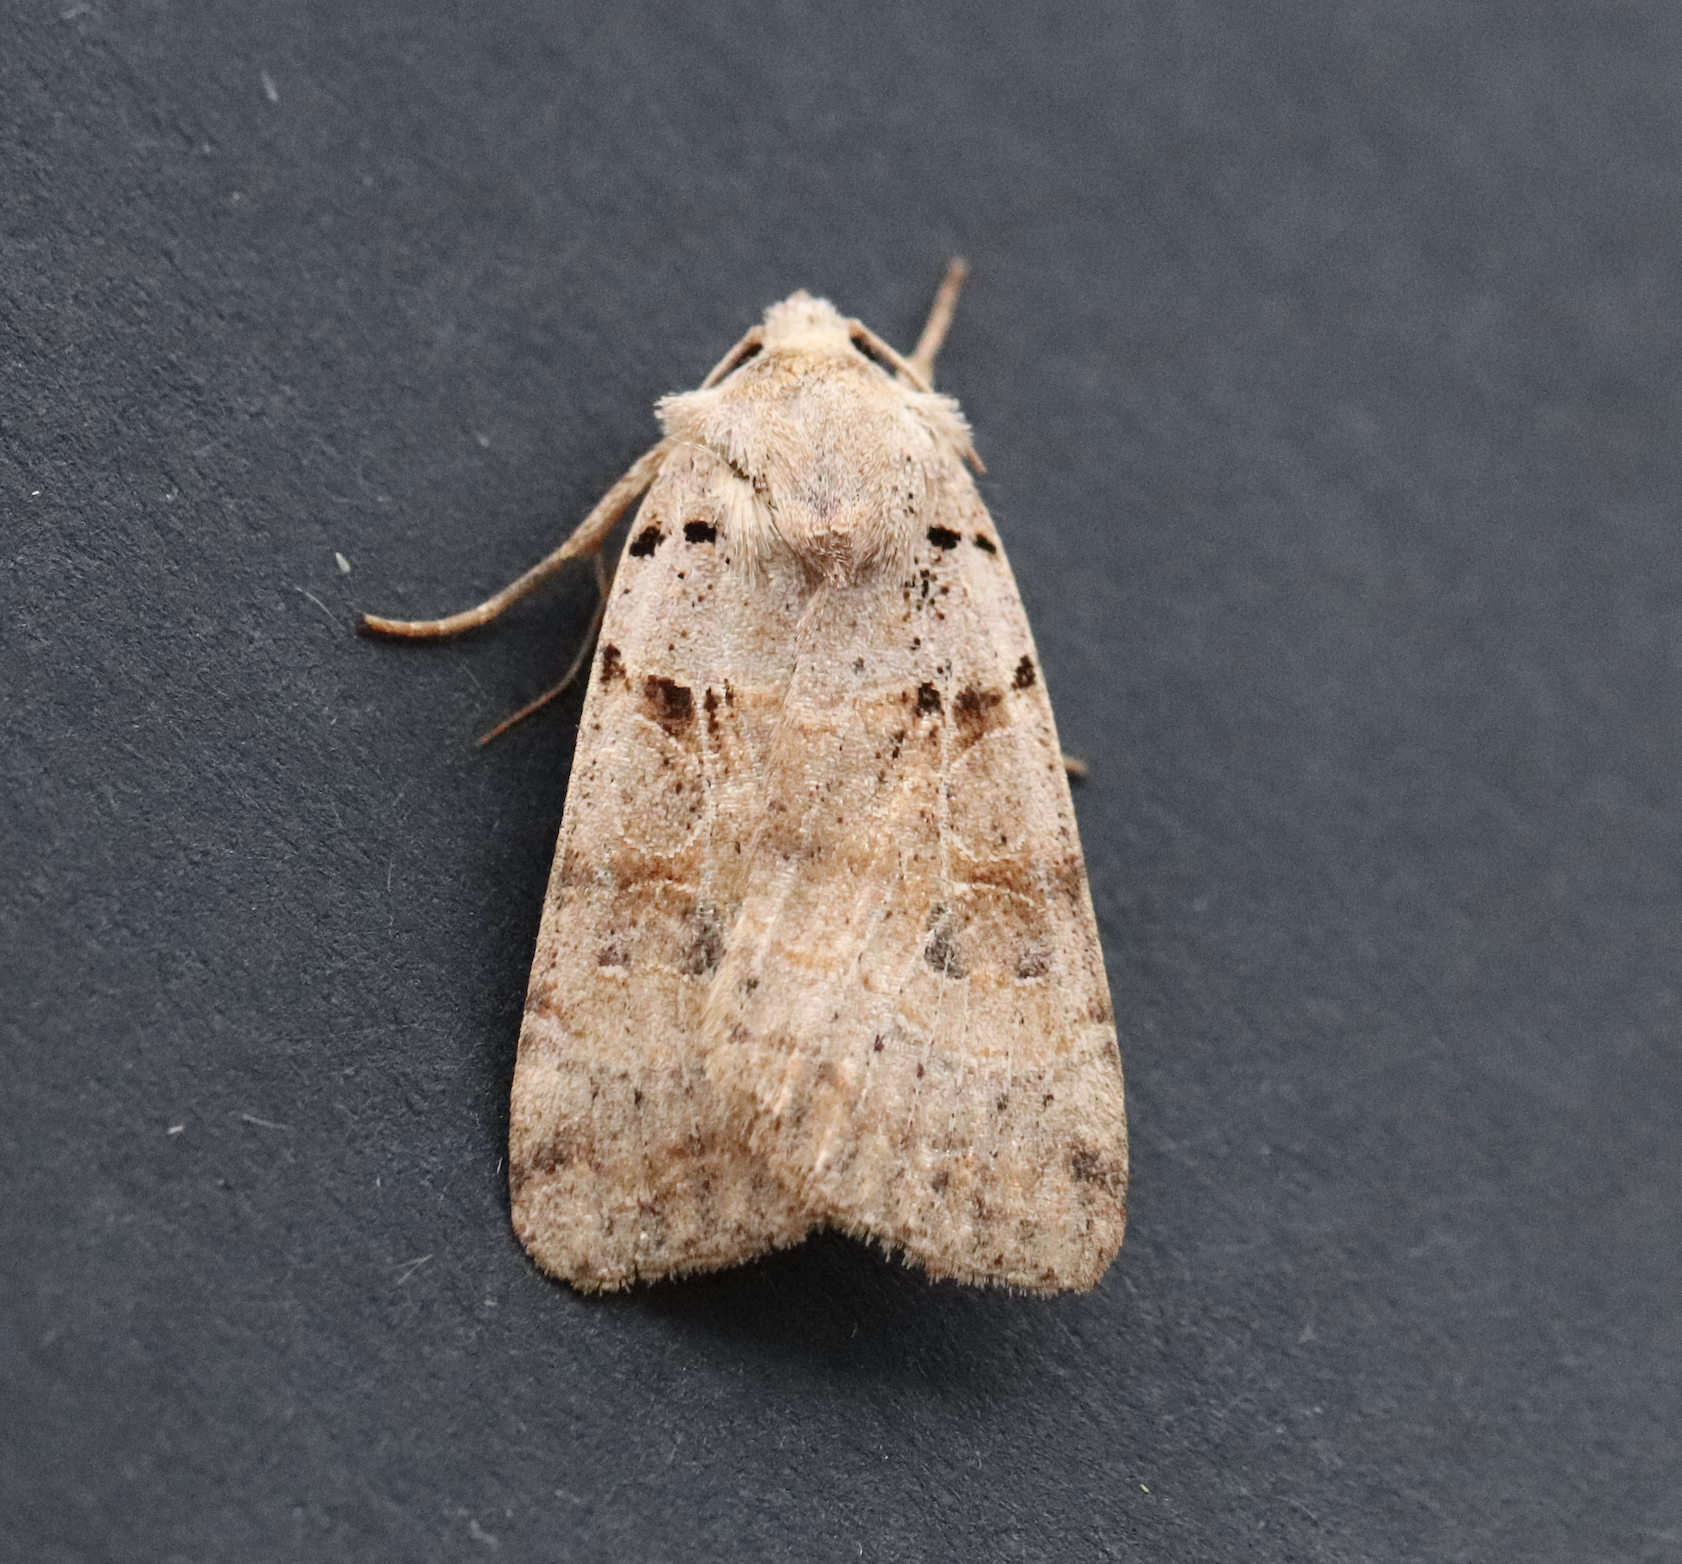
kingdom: Animalia
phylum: Arthropoda
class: Insecta
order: Lepidoptera
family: Noctuidae
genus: Eugnorisma
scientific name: Eugnorisma depuncta
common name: Plain clay
